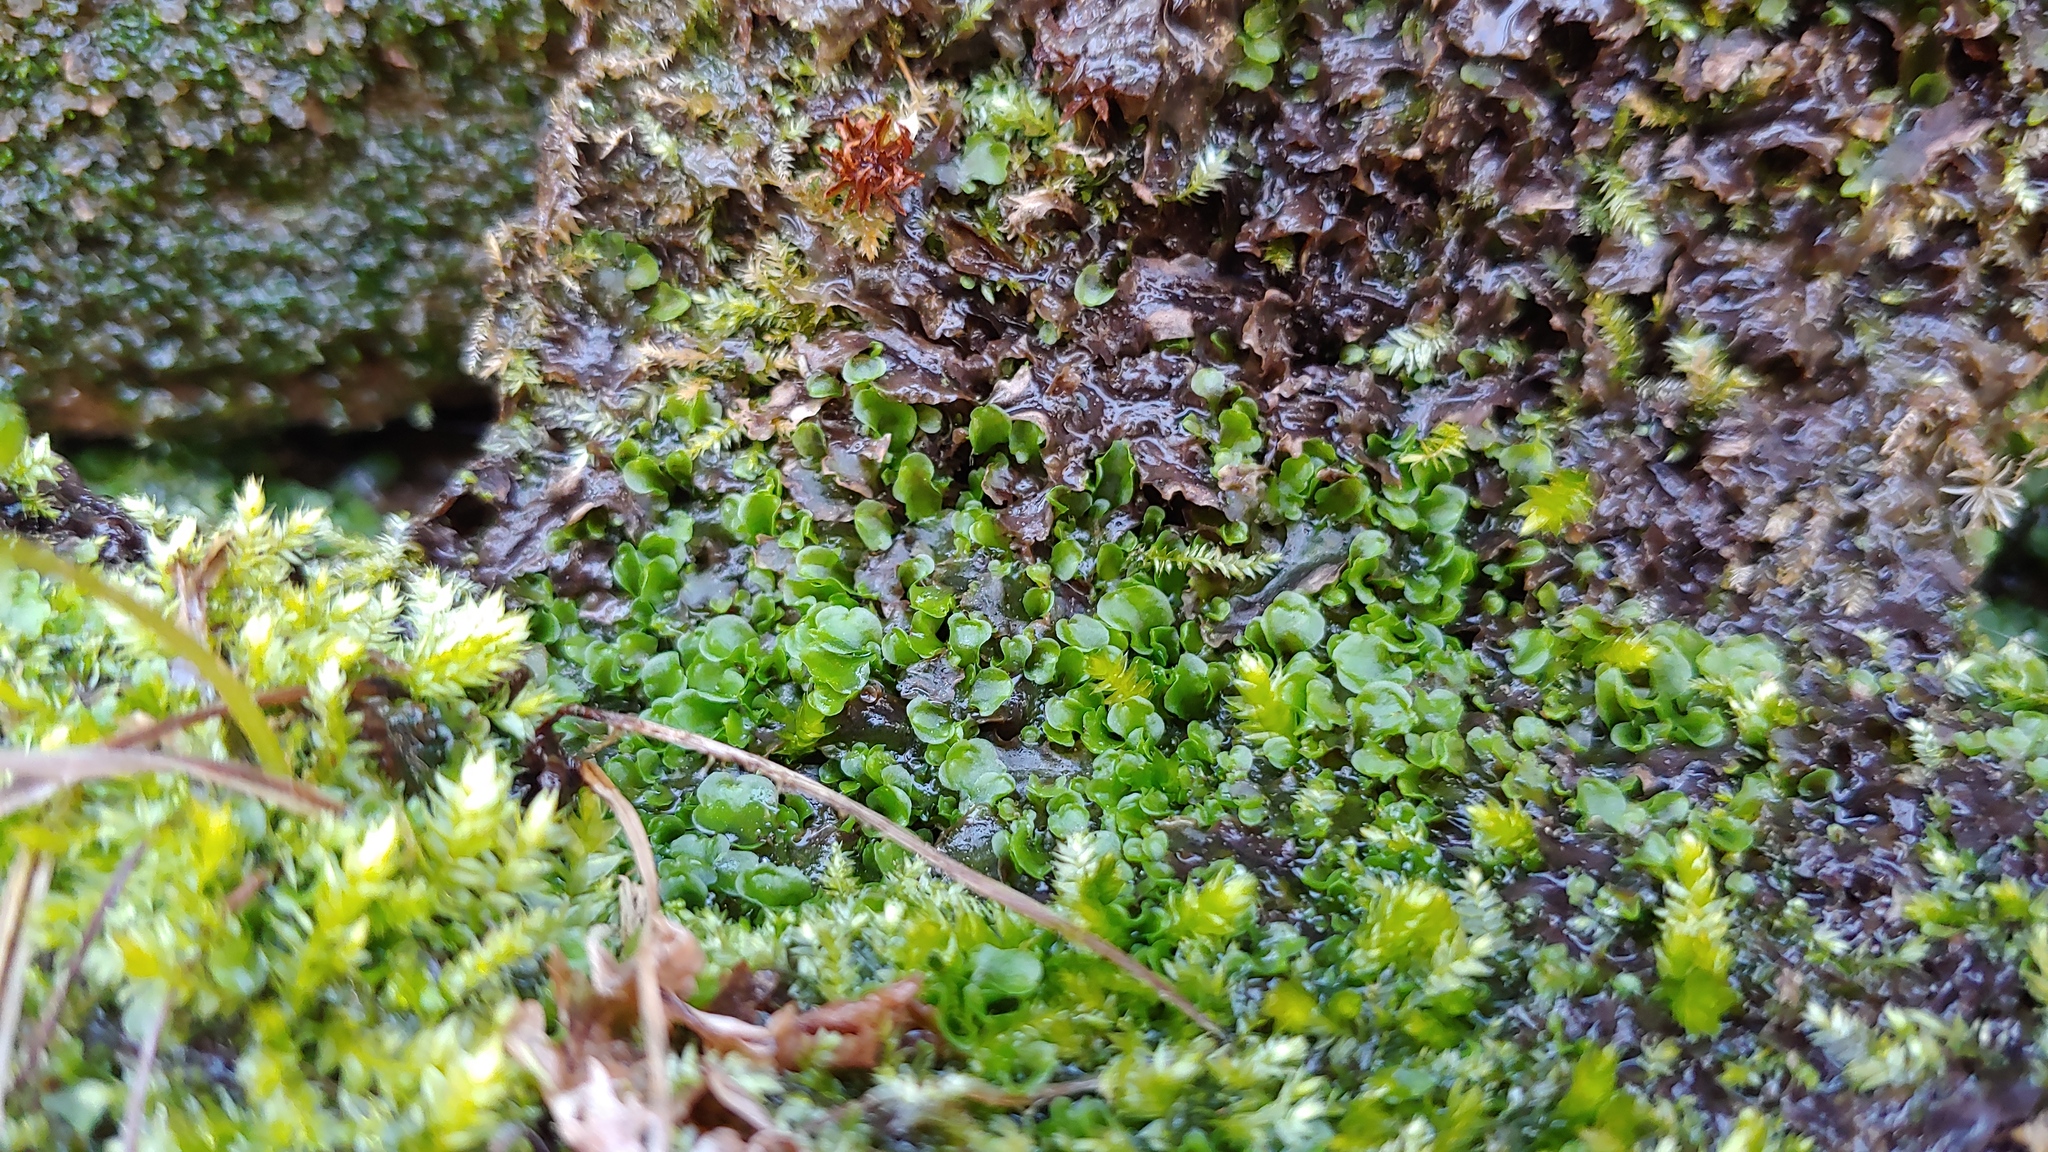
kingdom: Plantae
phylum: Marchantiophyta
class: Jungermanniopsida
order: Pelliales
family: Pelliaceae
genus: Pellia
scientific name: Pellia epiphylla
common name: Common pellia
